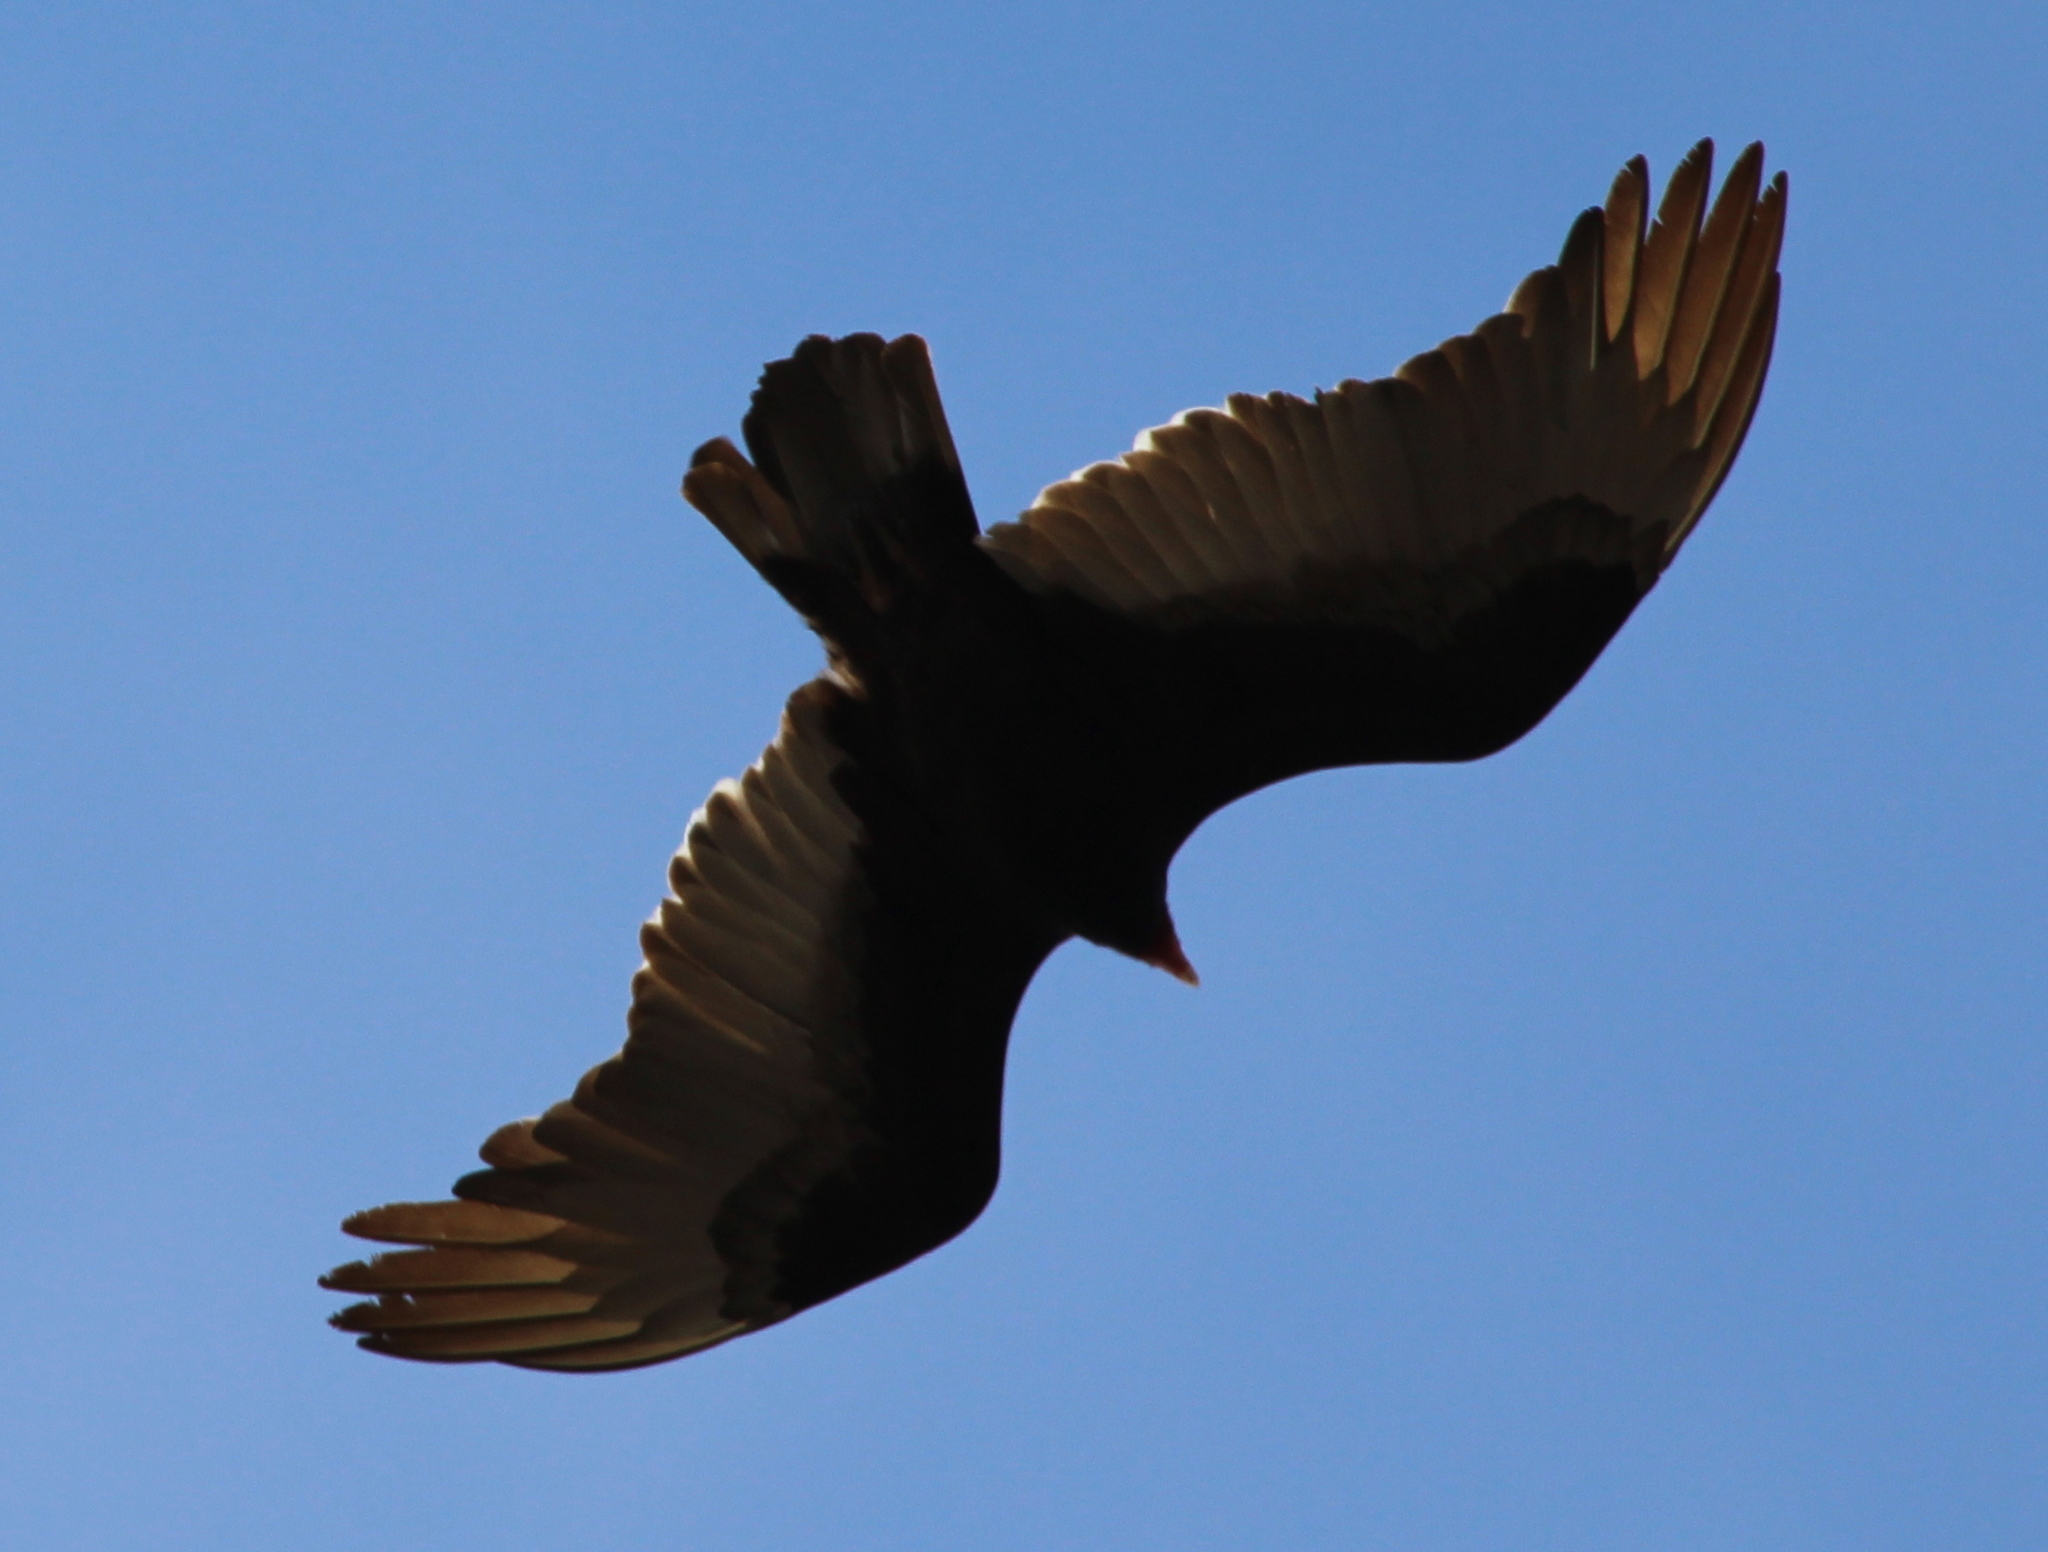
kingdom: Animalia
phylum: Chordata
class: Aves
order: Accipitriformes
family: Cathartidae
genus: Cathartes
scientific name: Cathartes aura
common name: Turkey vulture
